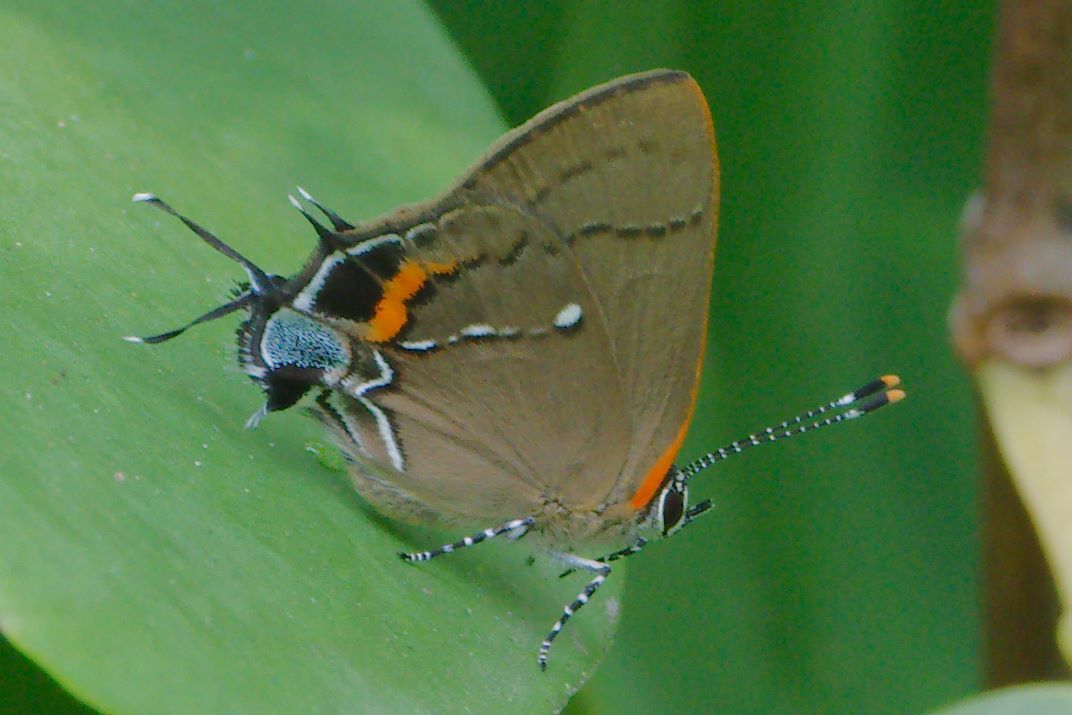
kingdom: Animalia
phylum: Arthropoda
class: Insecta
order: Lepidoptera
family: Lycaenidae
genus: Thecla
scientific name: Thecla angelia
